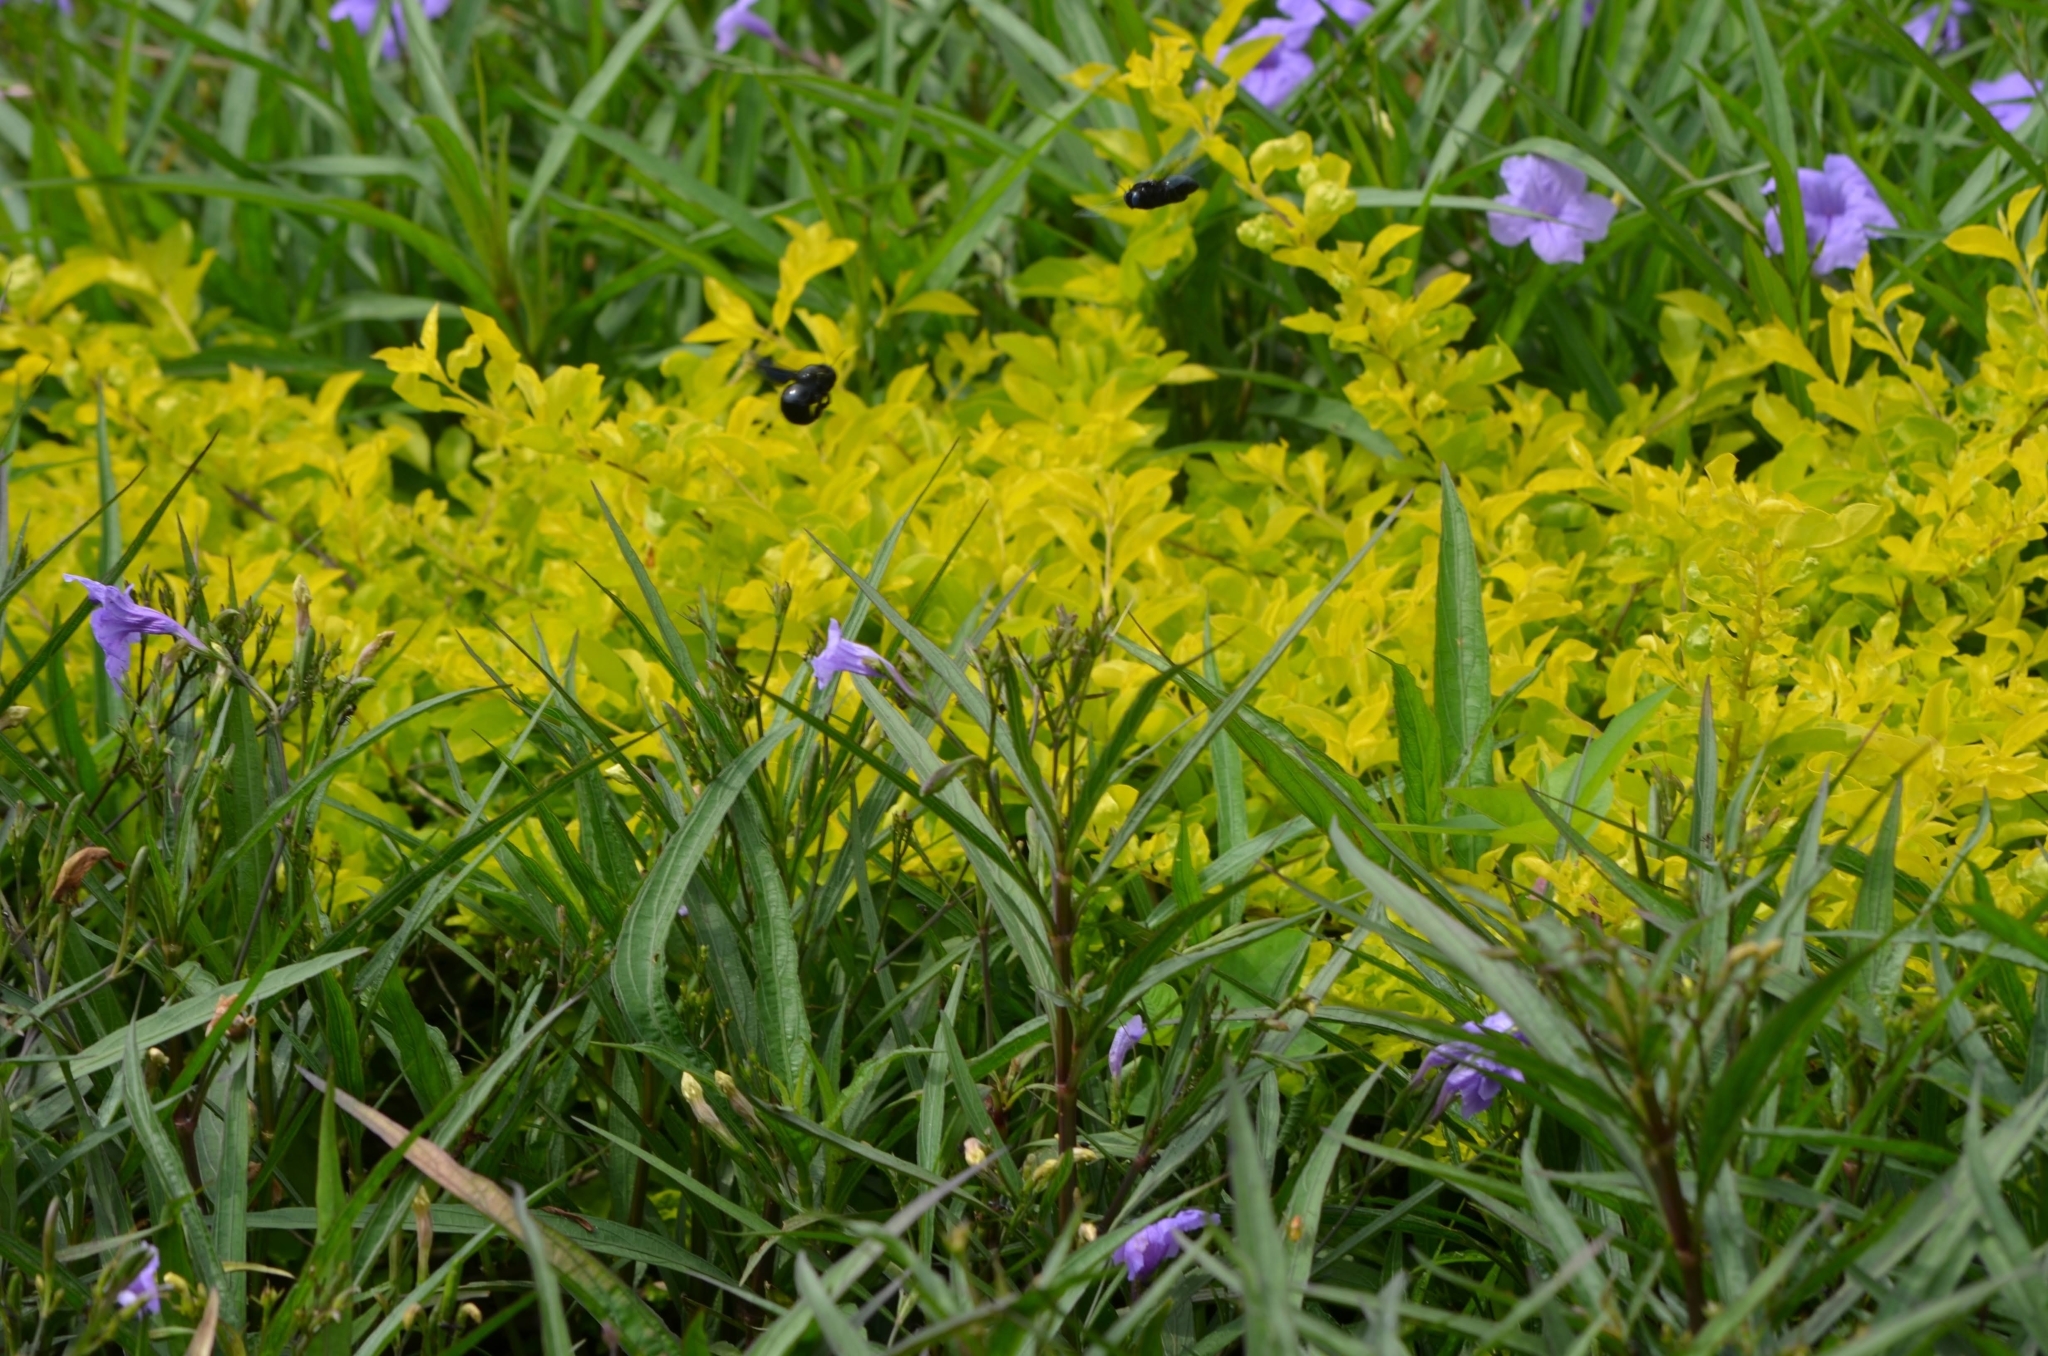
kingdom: Plantae
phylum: Tracheophyta
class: Magnoliopsida
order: Lamiales
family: Acanthaceae
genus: Ruellia
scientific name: Ruellia simplex
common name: Softseed wild petunia
